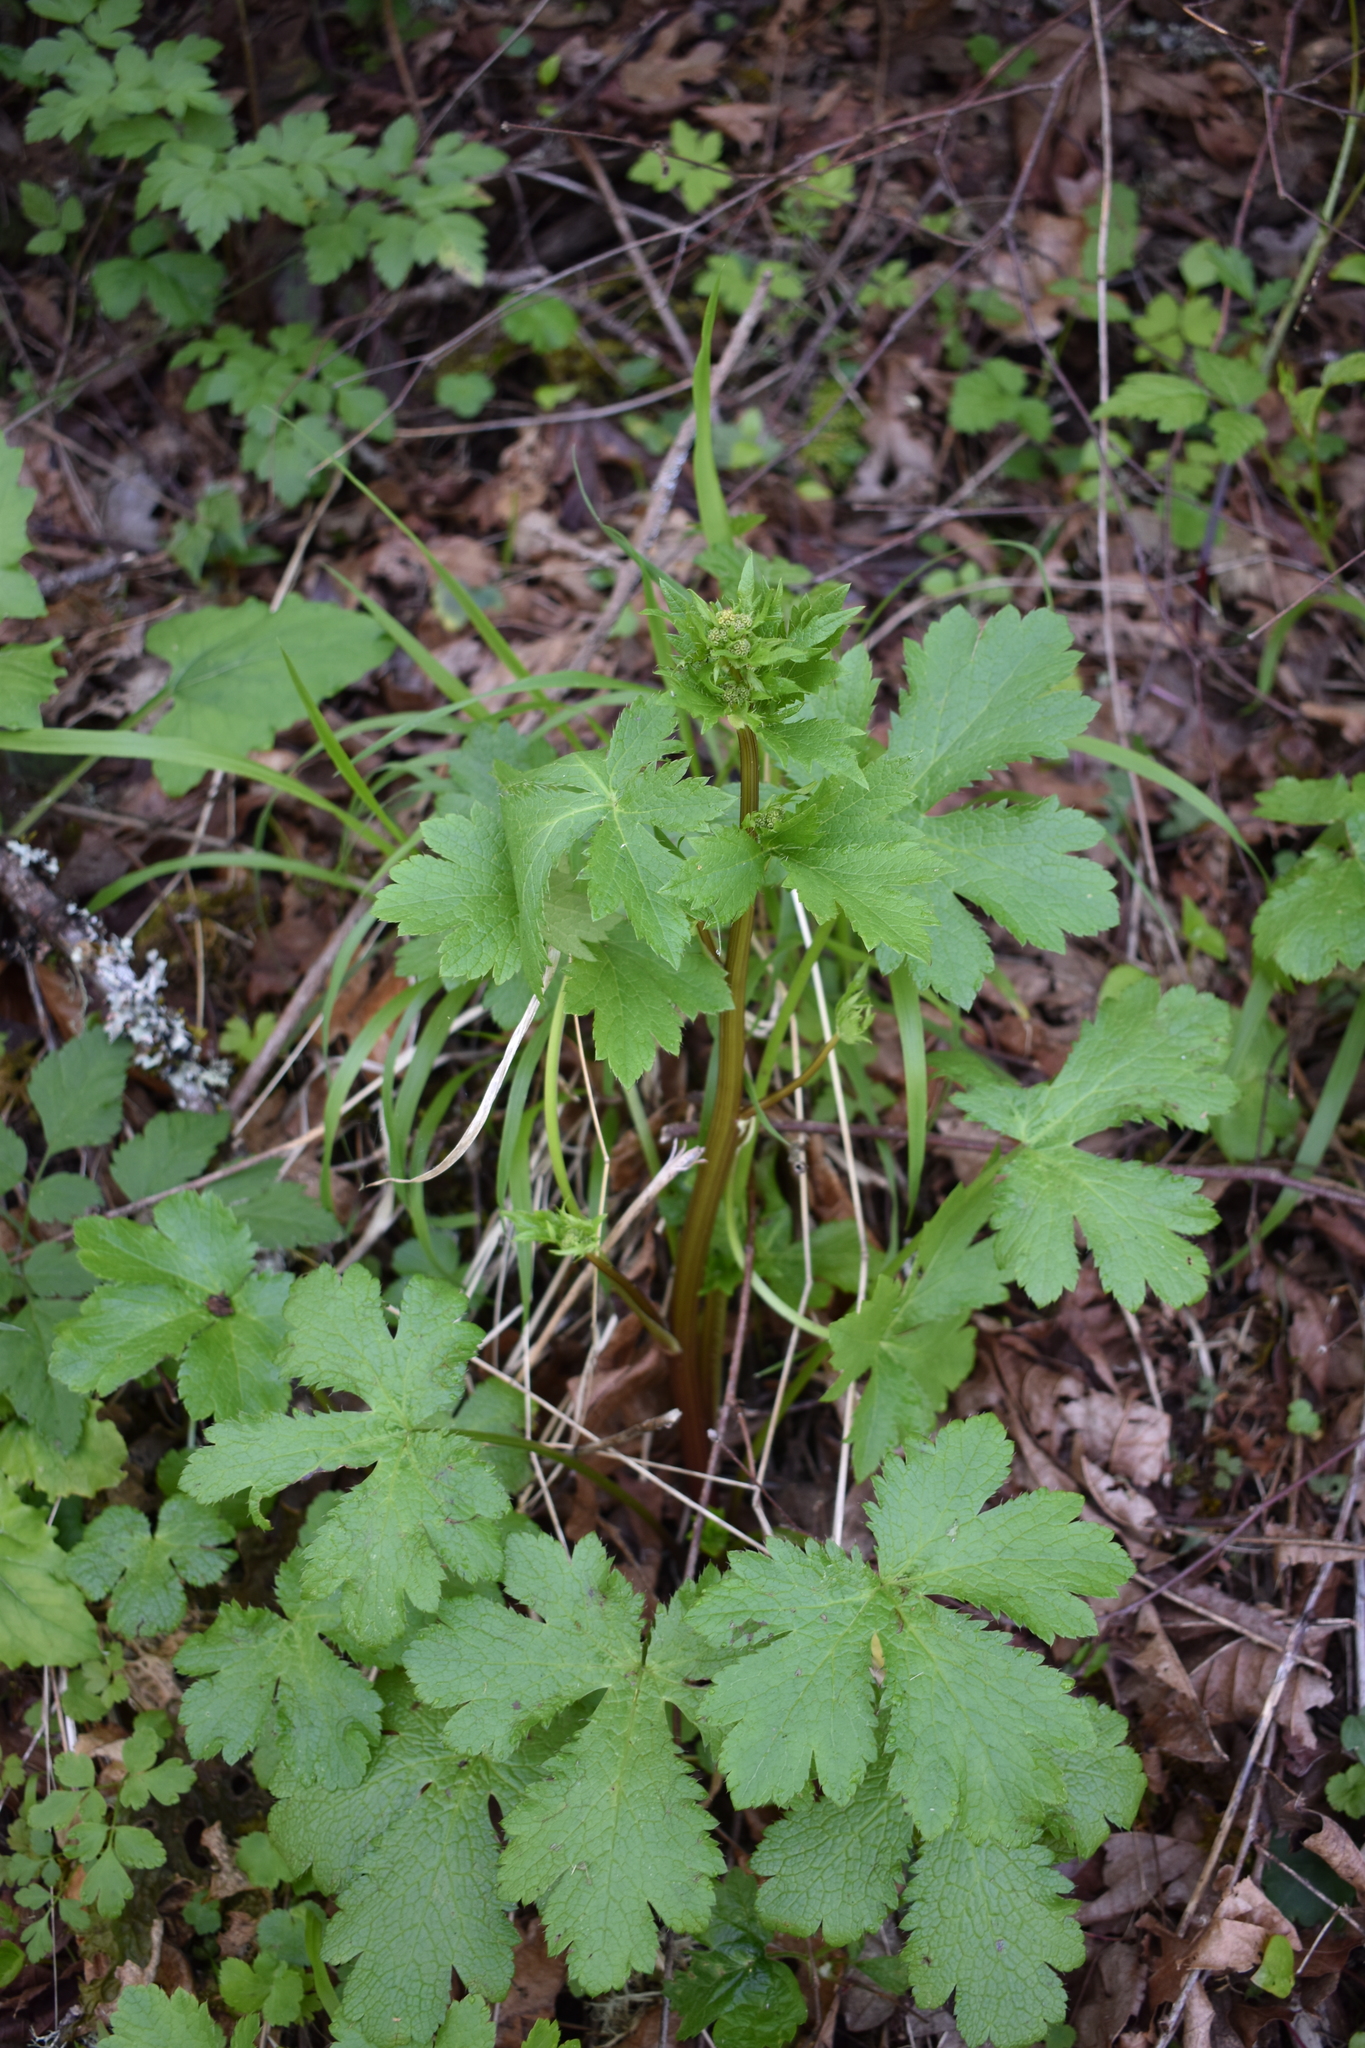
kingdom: Plantae
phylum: Tracheophyta
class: Magnoliopsida
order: Apiales
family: Apiaceae
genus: Sanicula
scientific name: Sanicula crassicaulis
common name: Western snakeroot
